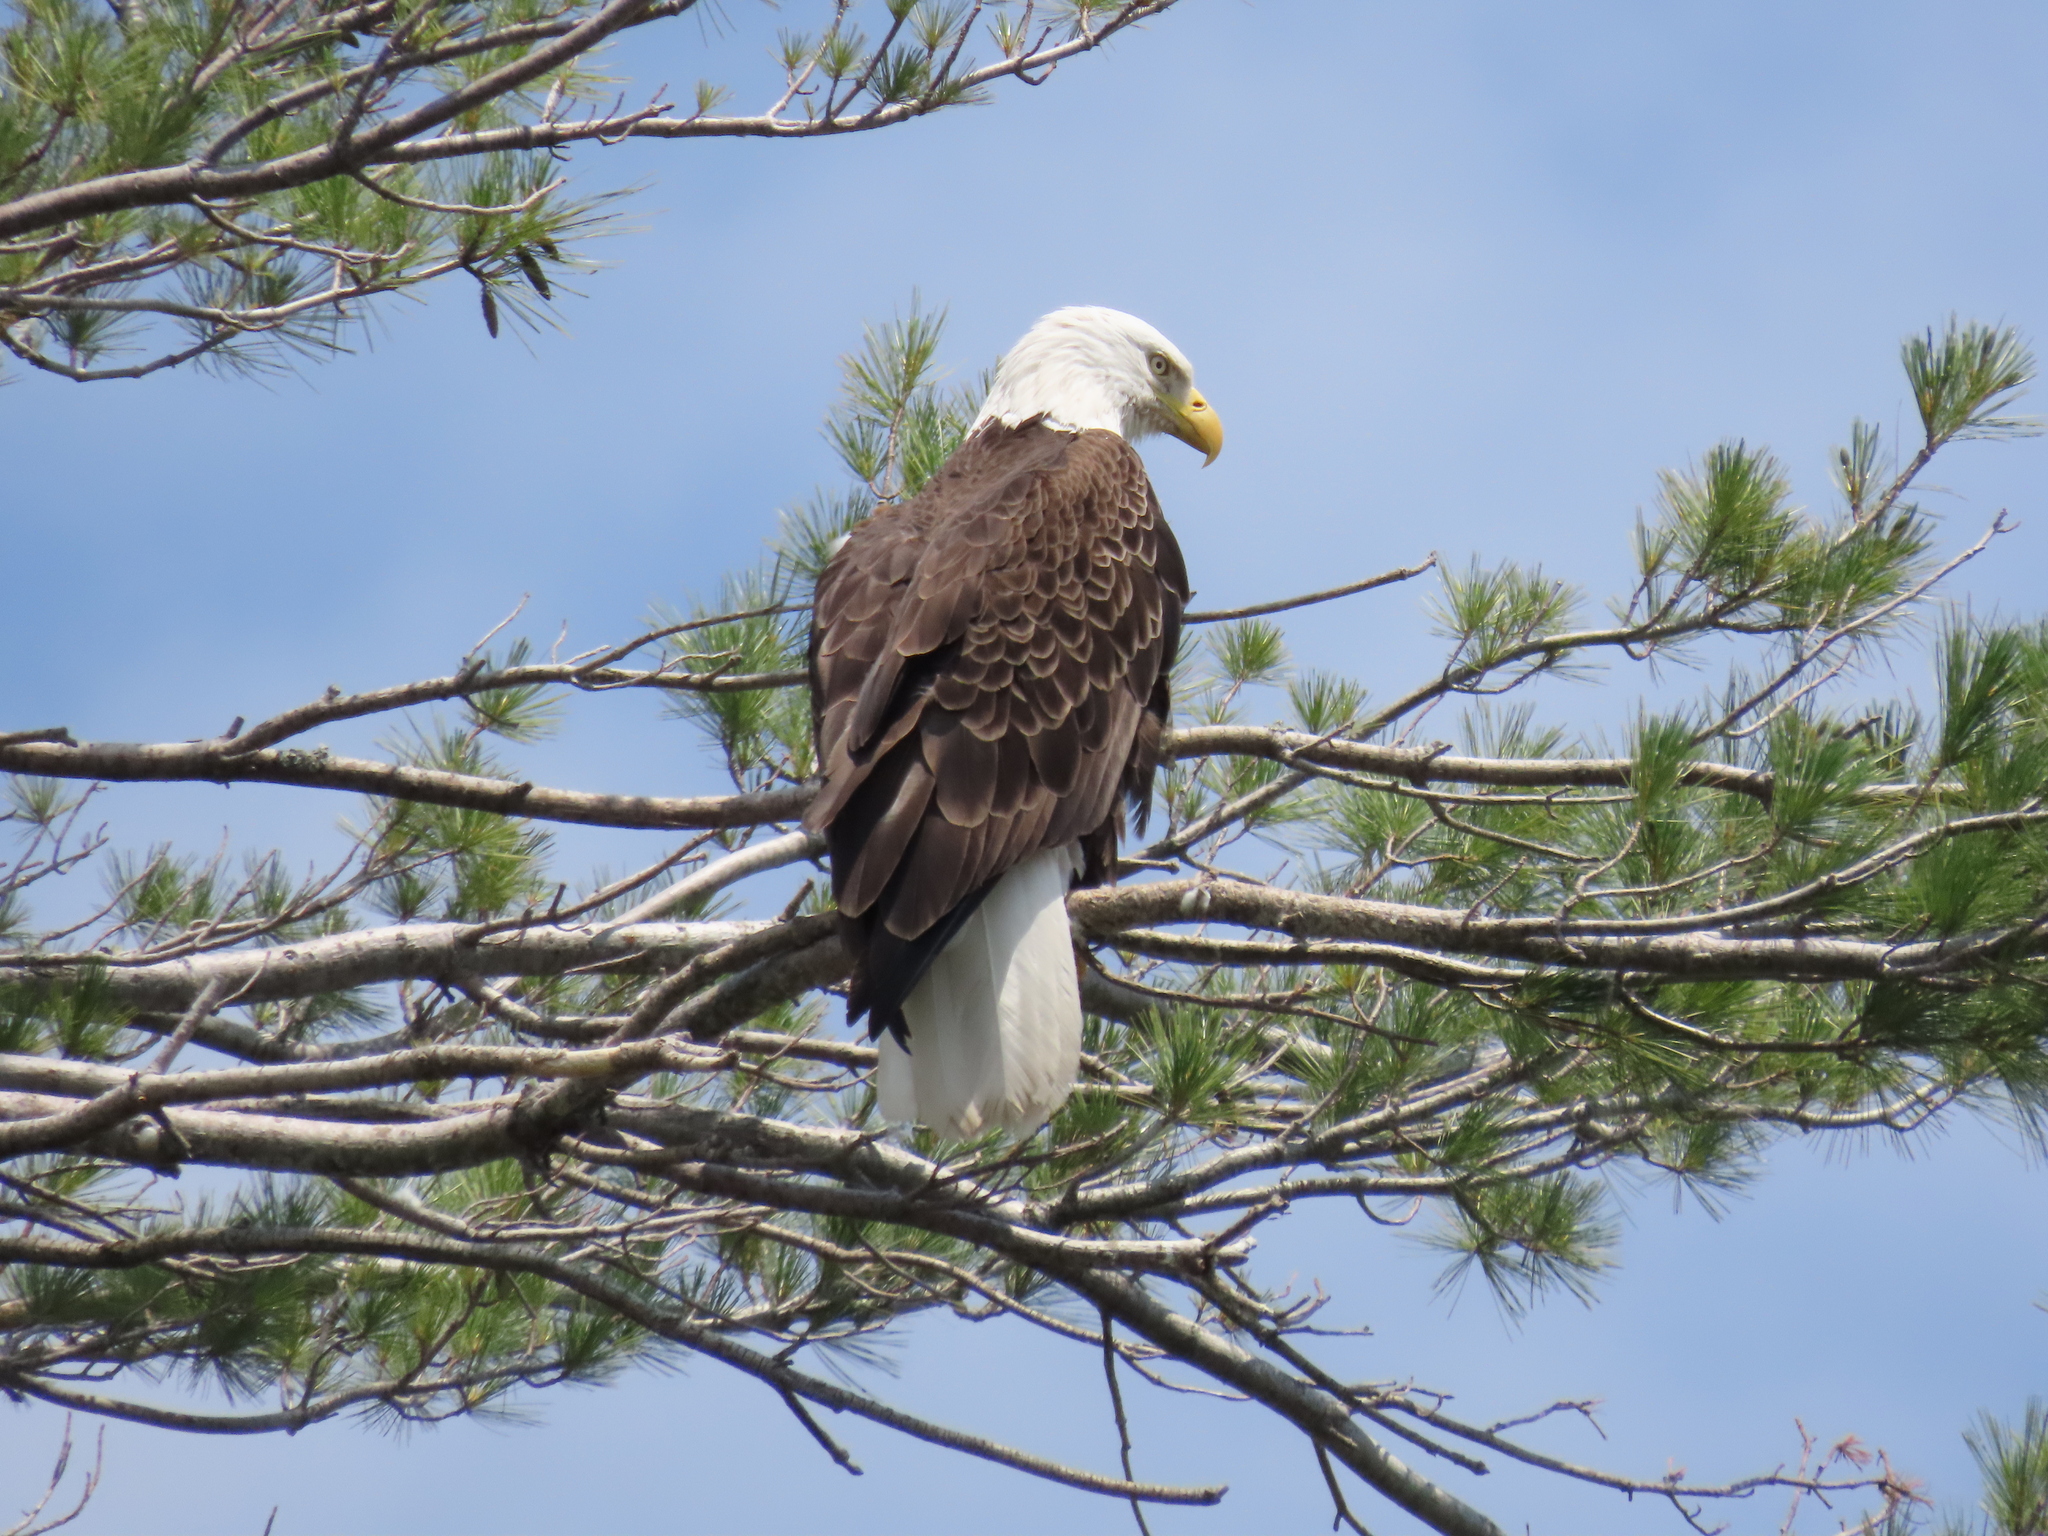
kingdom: Animalia
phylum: Chordata
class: Aves
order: Accipitriformes
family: Accipitridae
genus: Haliaeetus
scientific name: Haliaeetus leucocephalus
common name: Bald eagle
